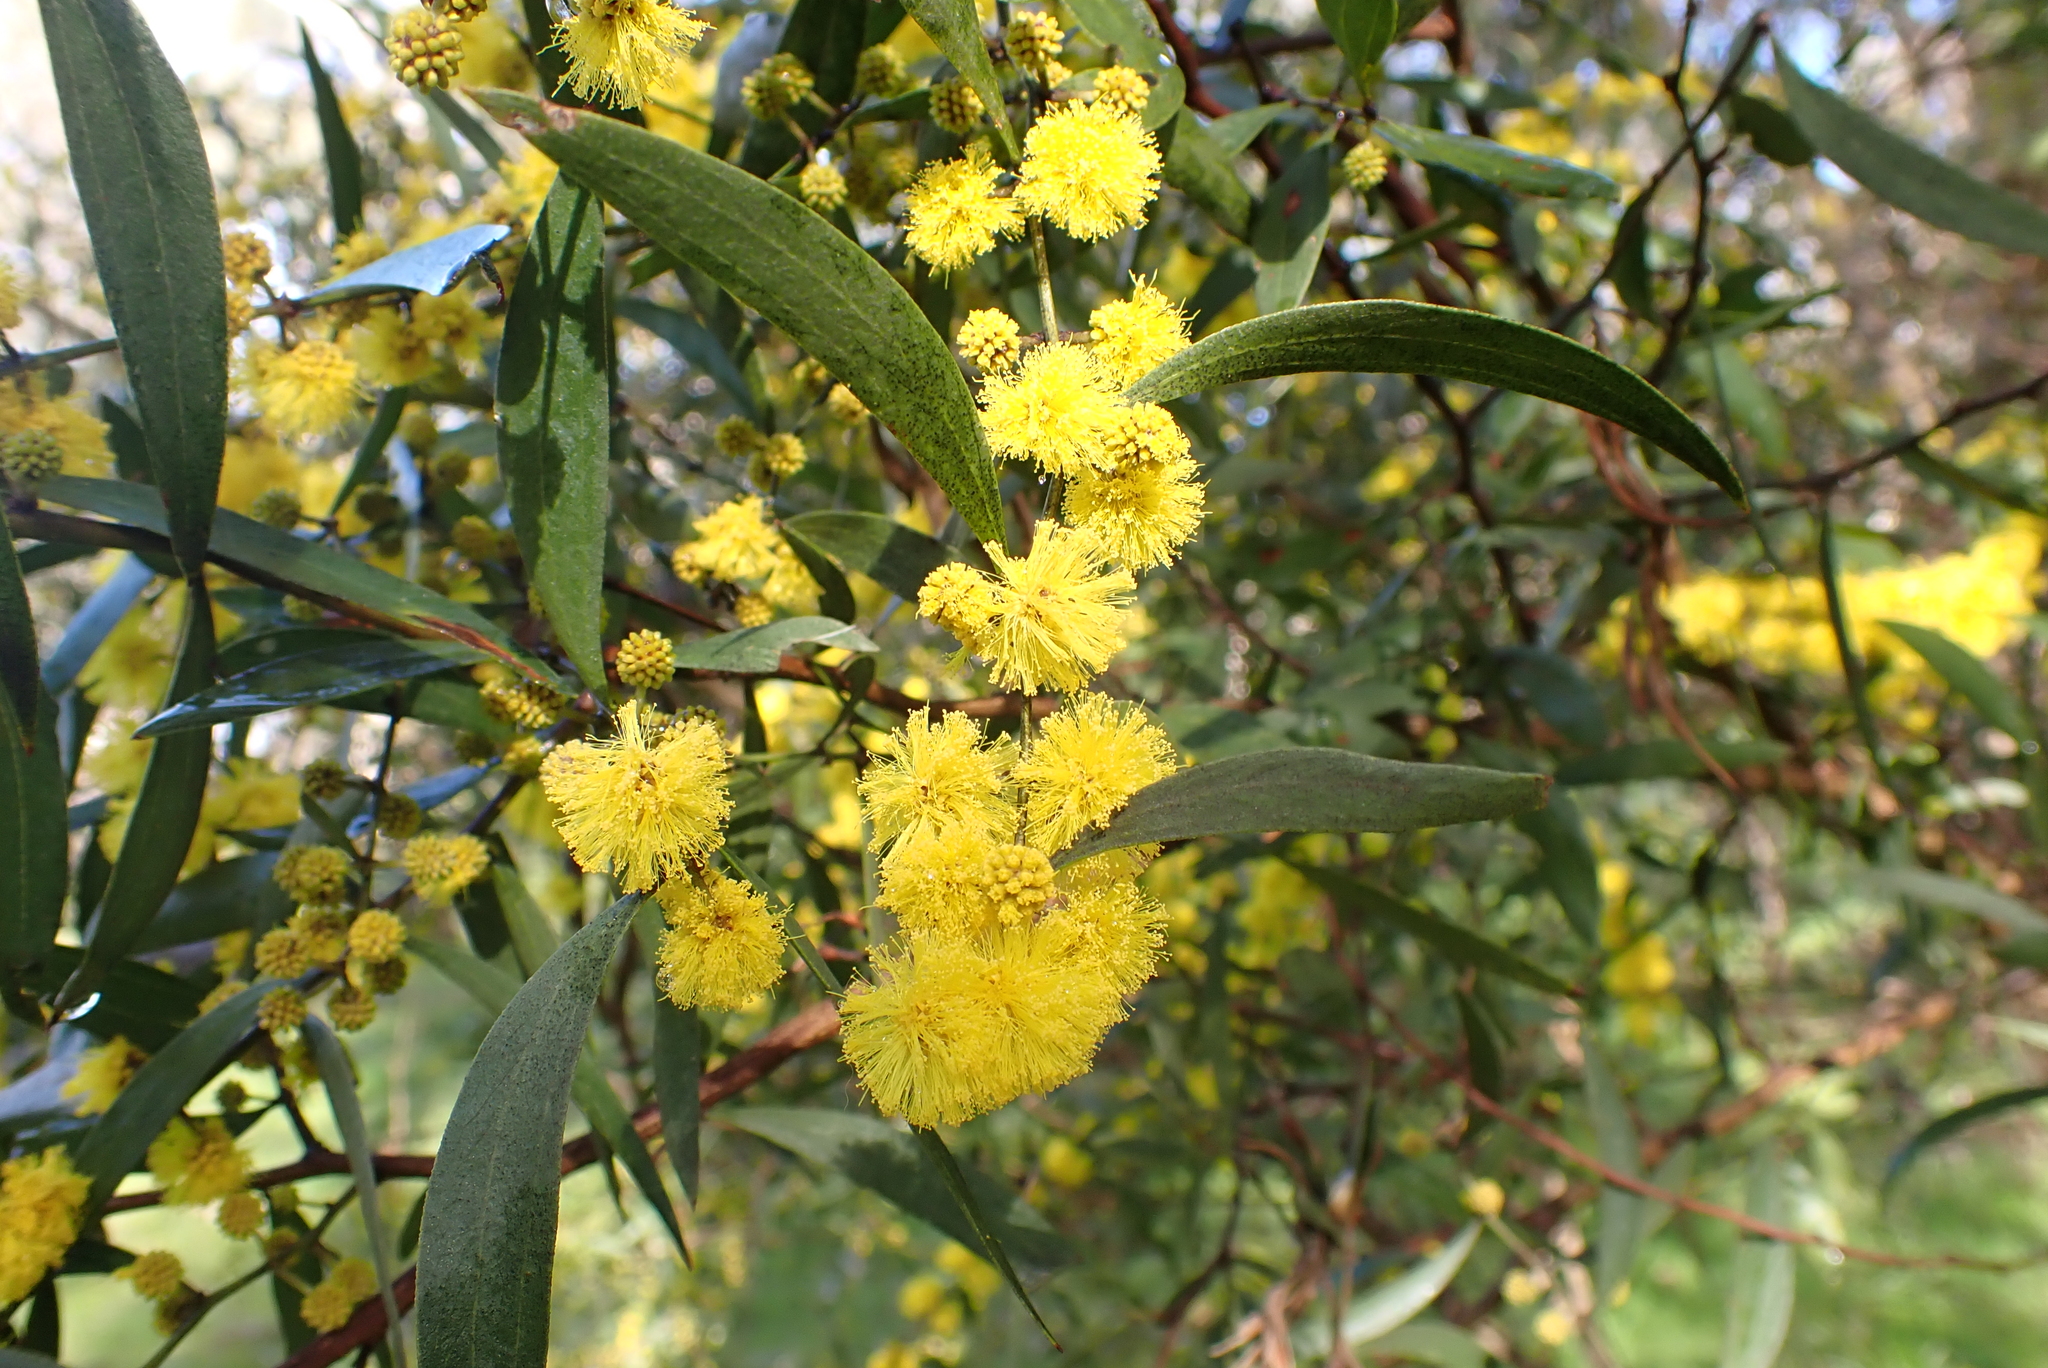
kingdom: Plantae
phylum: Tracheophyta
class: Magnoliopsida
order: Fabales
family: Fabaceae
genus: Acacia
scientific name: Acacia verniciflua
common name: Varnish wattle
